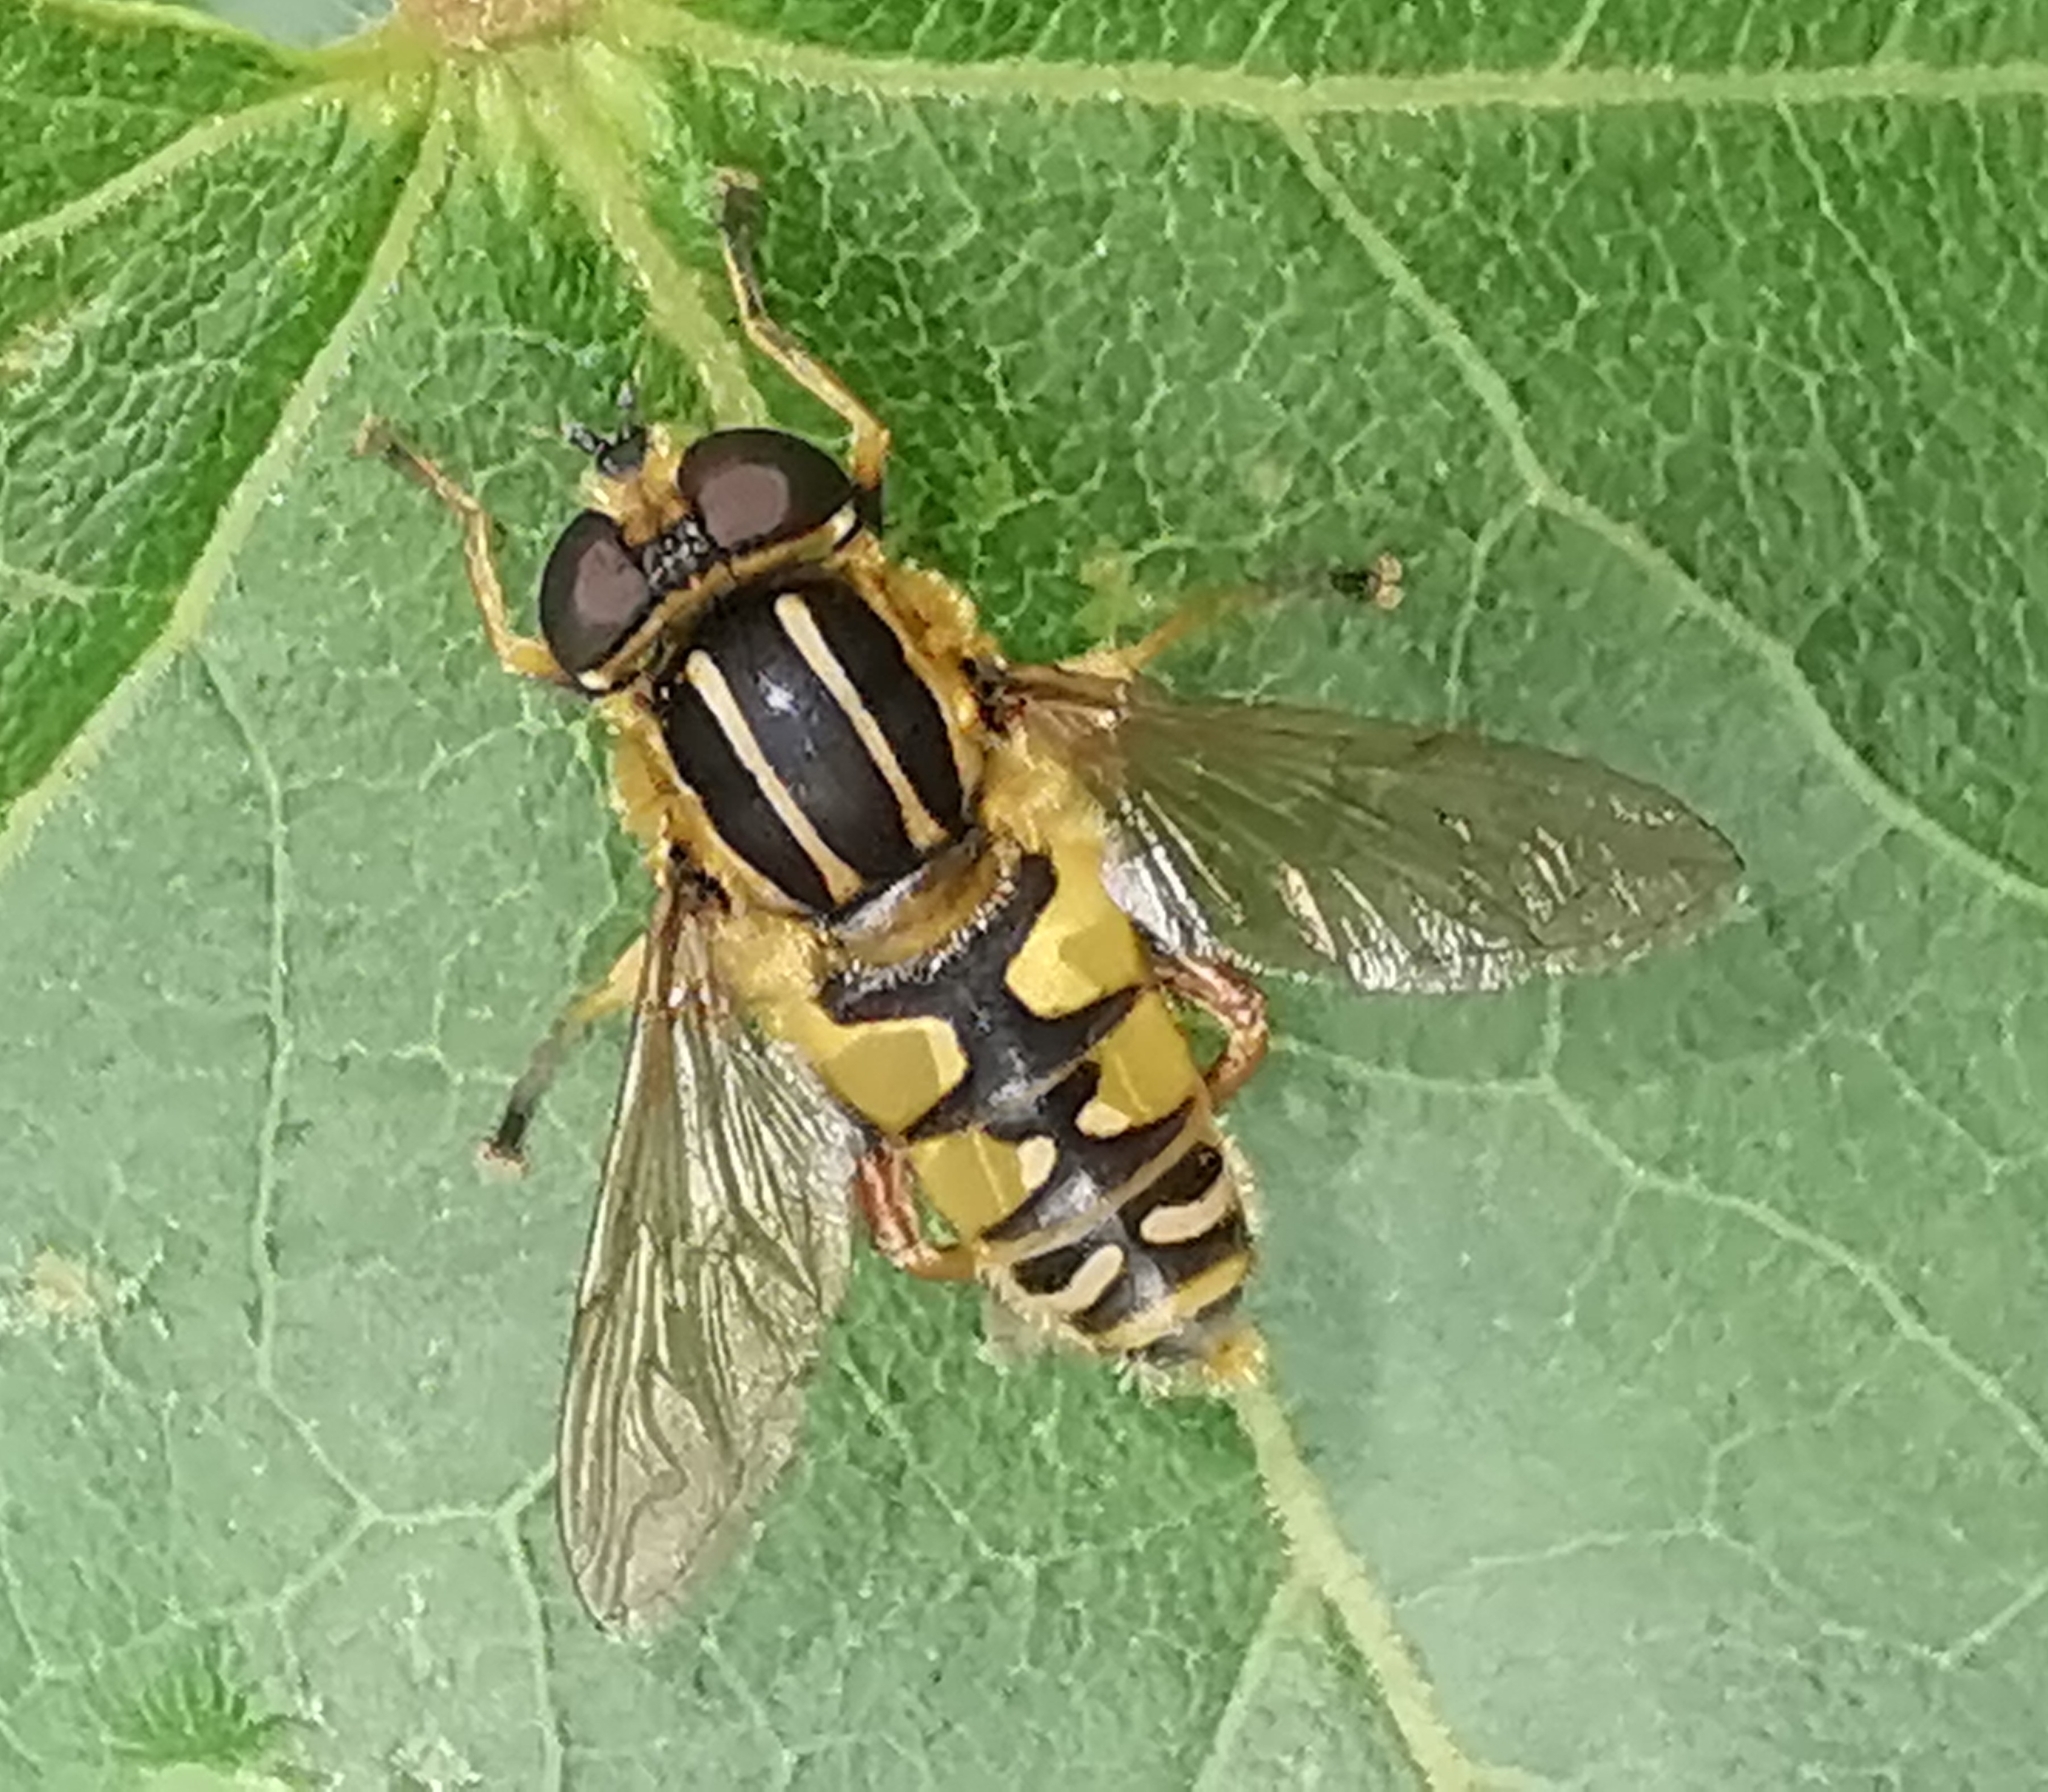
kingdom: Animalia
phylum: Arthropoda
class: Insecta
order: Diptera
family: Syrphidae
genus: Helophilus
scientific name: Helophilus pendulus
